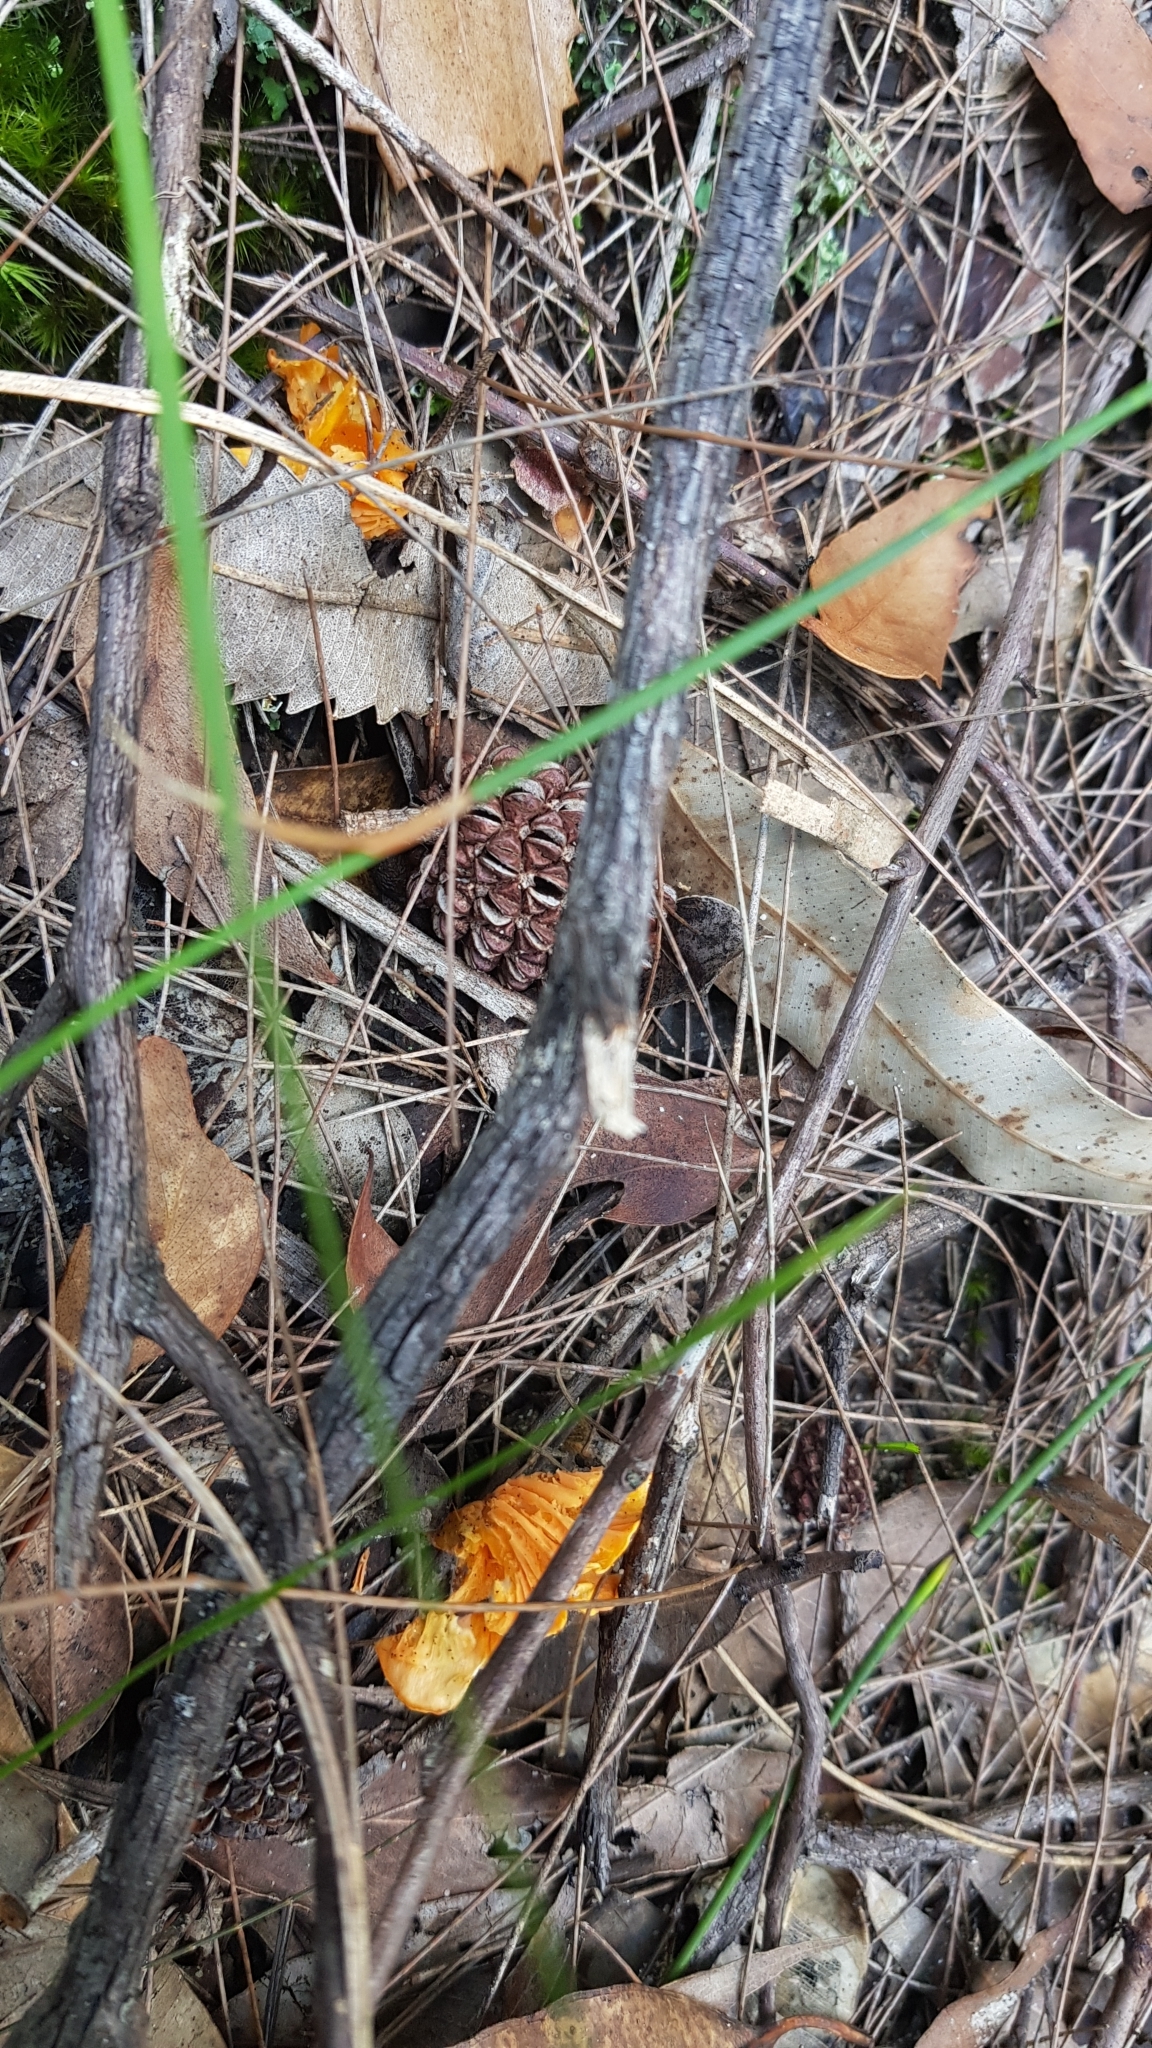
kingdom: Fungi
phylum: Basidiomycota
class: Agaricomycetes
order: Cantharellales
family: Hydnaceae
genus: Cantharellus
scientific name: Cantharellus
